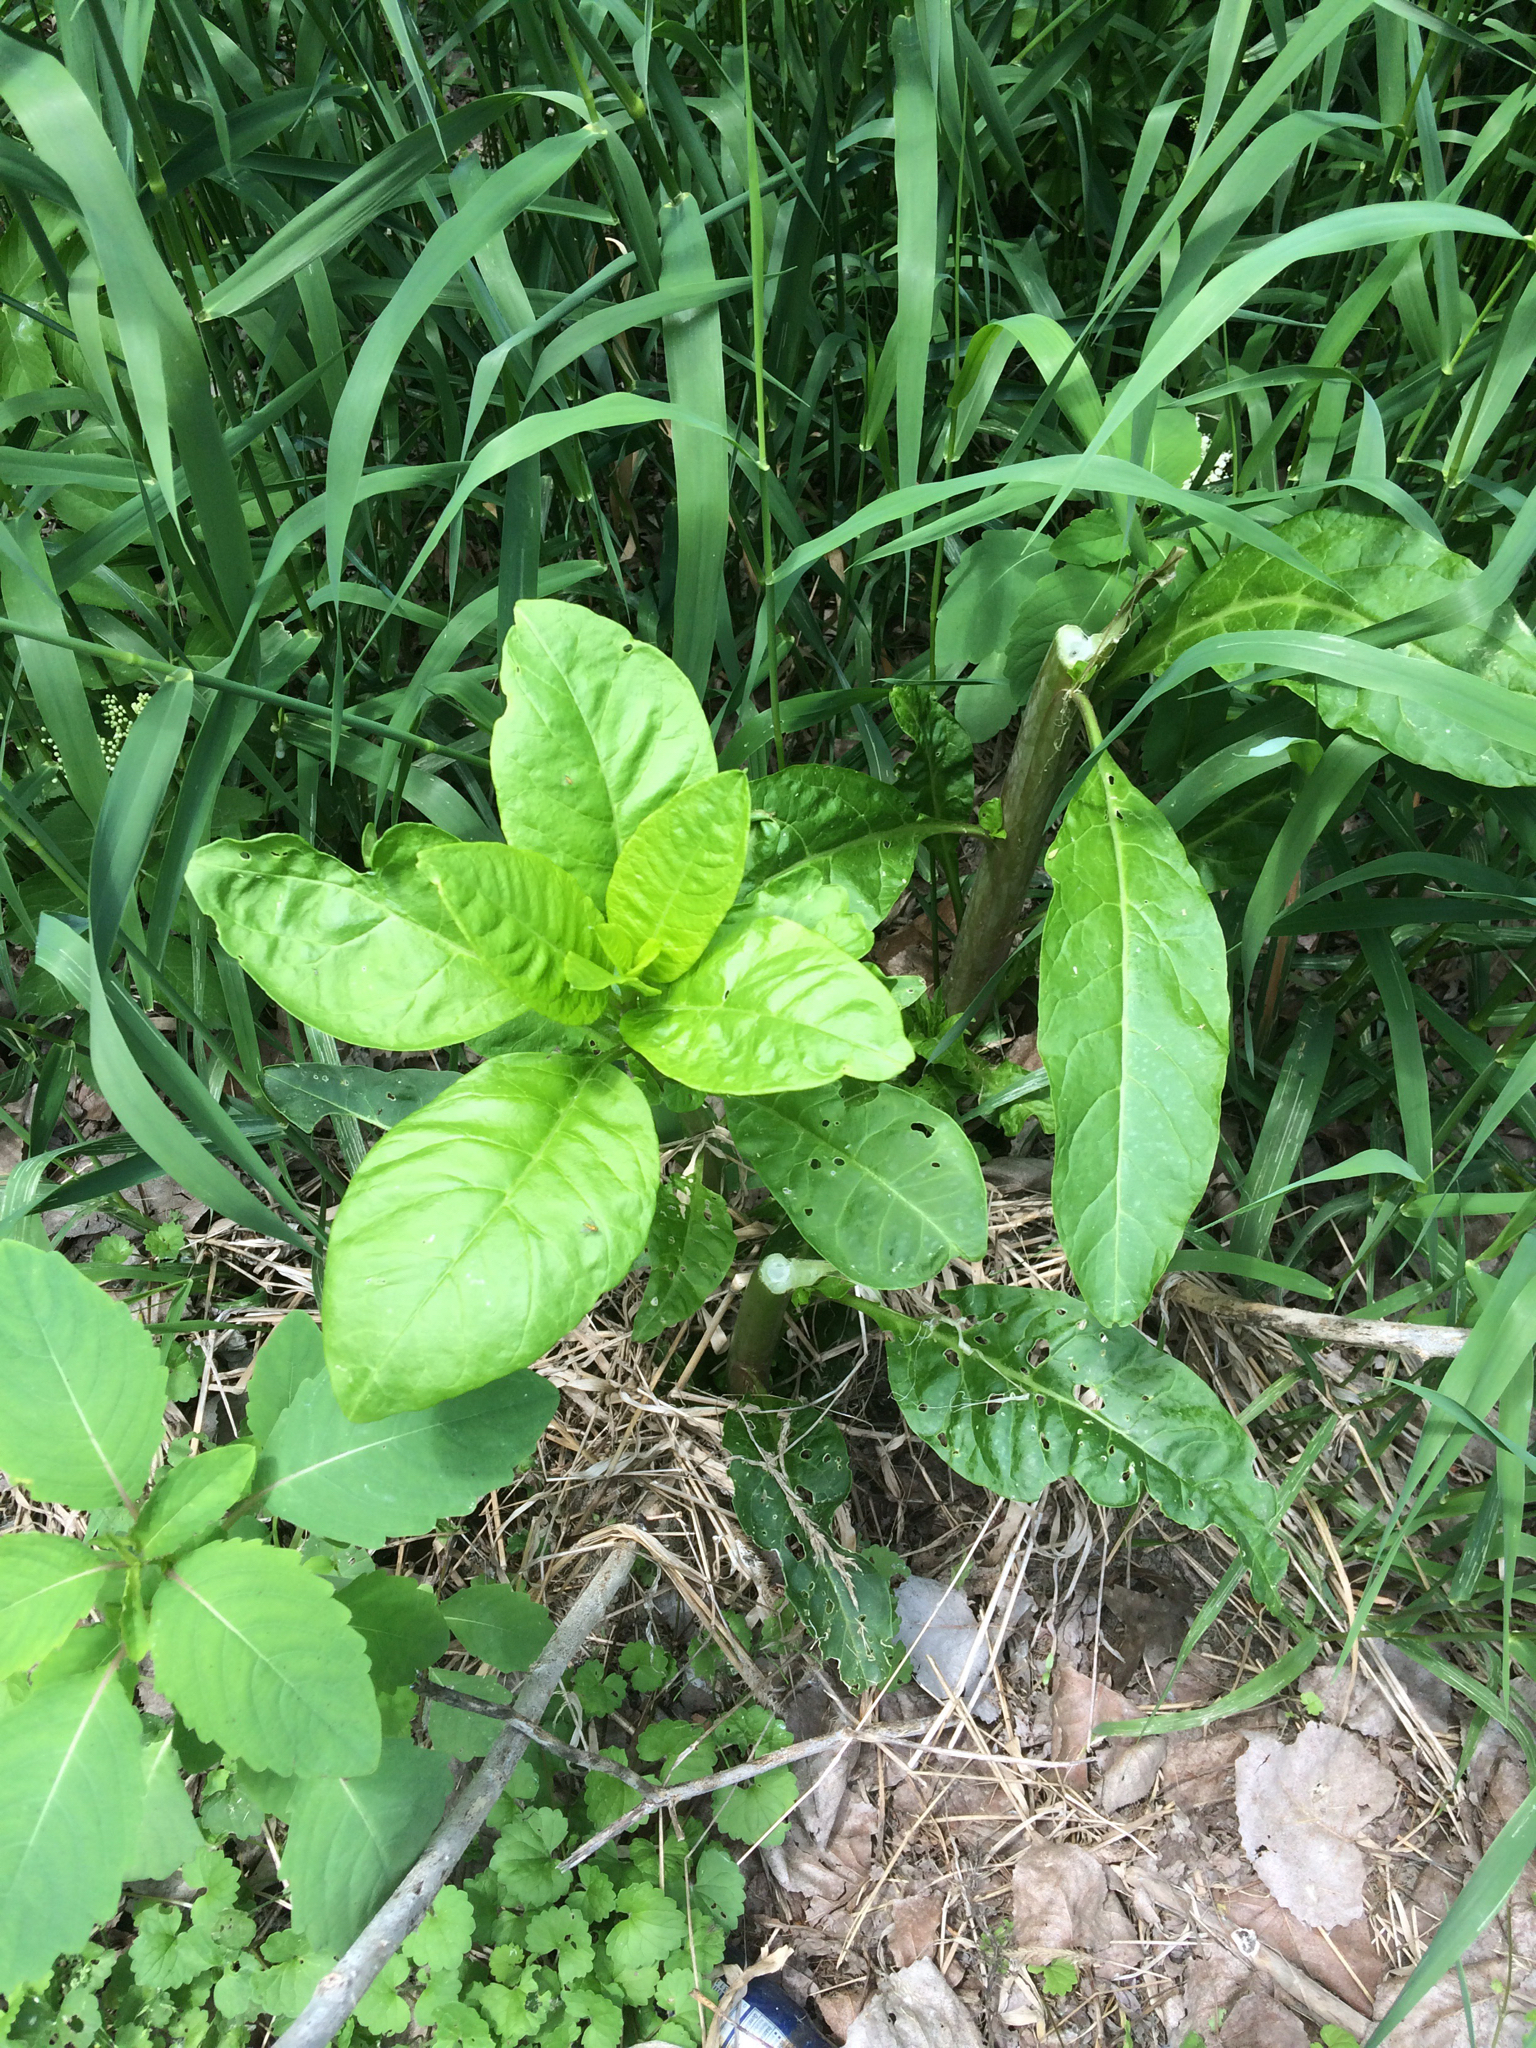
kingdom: Plantae
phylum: Tracheophyta
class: Magnoliopsida
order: Caryophyllales
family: Phytolaccaceae
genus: Phytolacca
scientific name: Phytolacca americana
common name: American pokeweed
